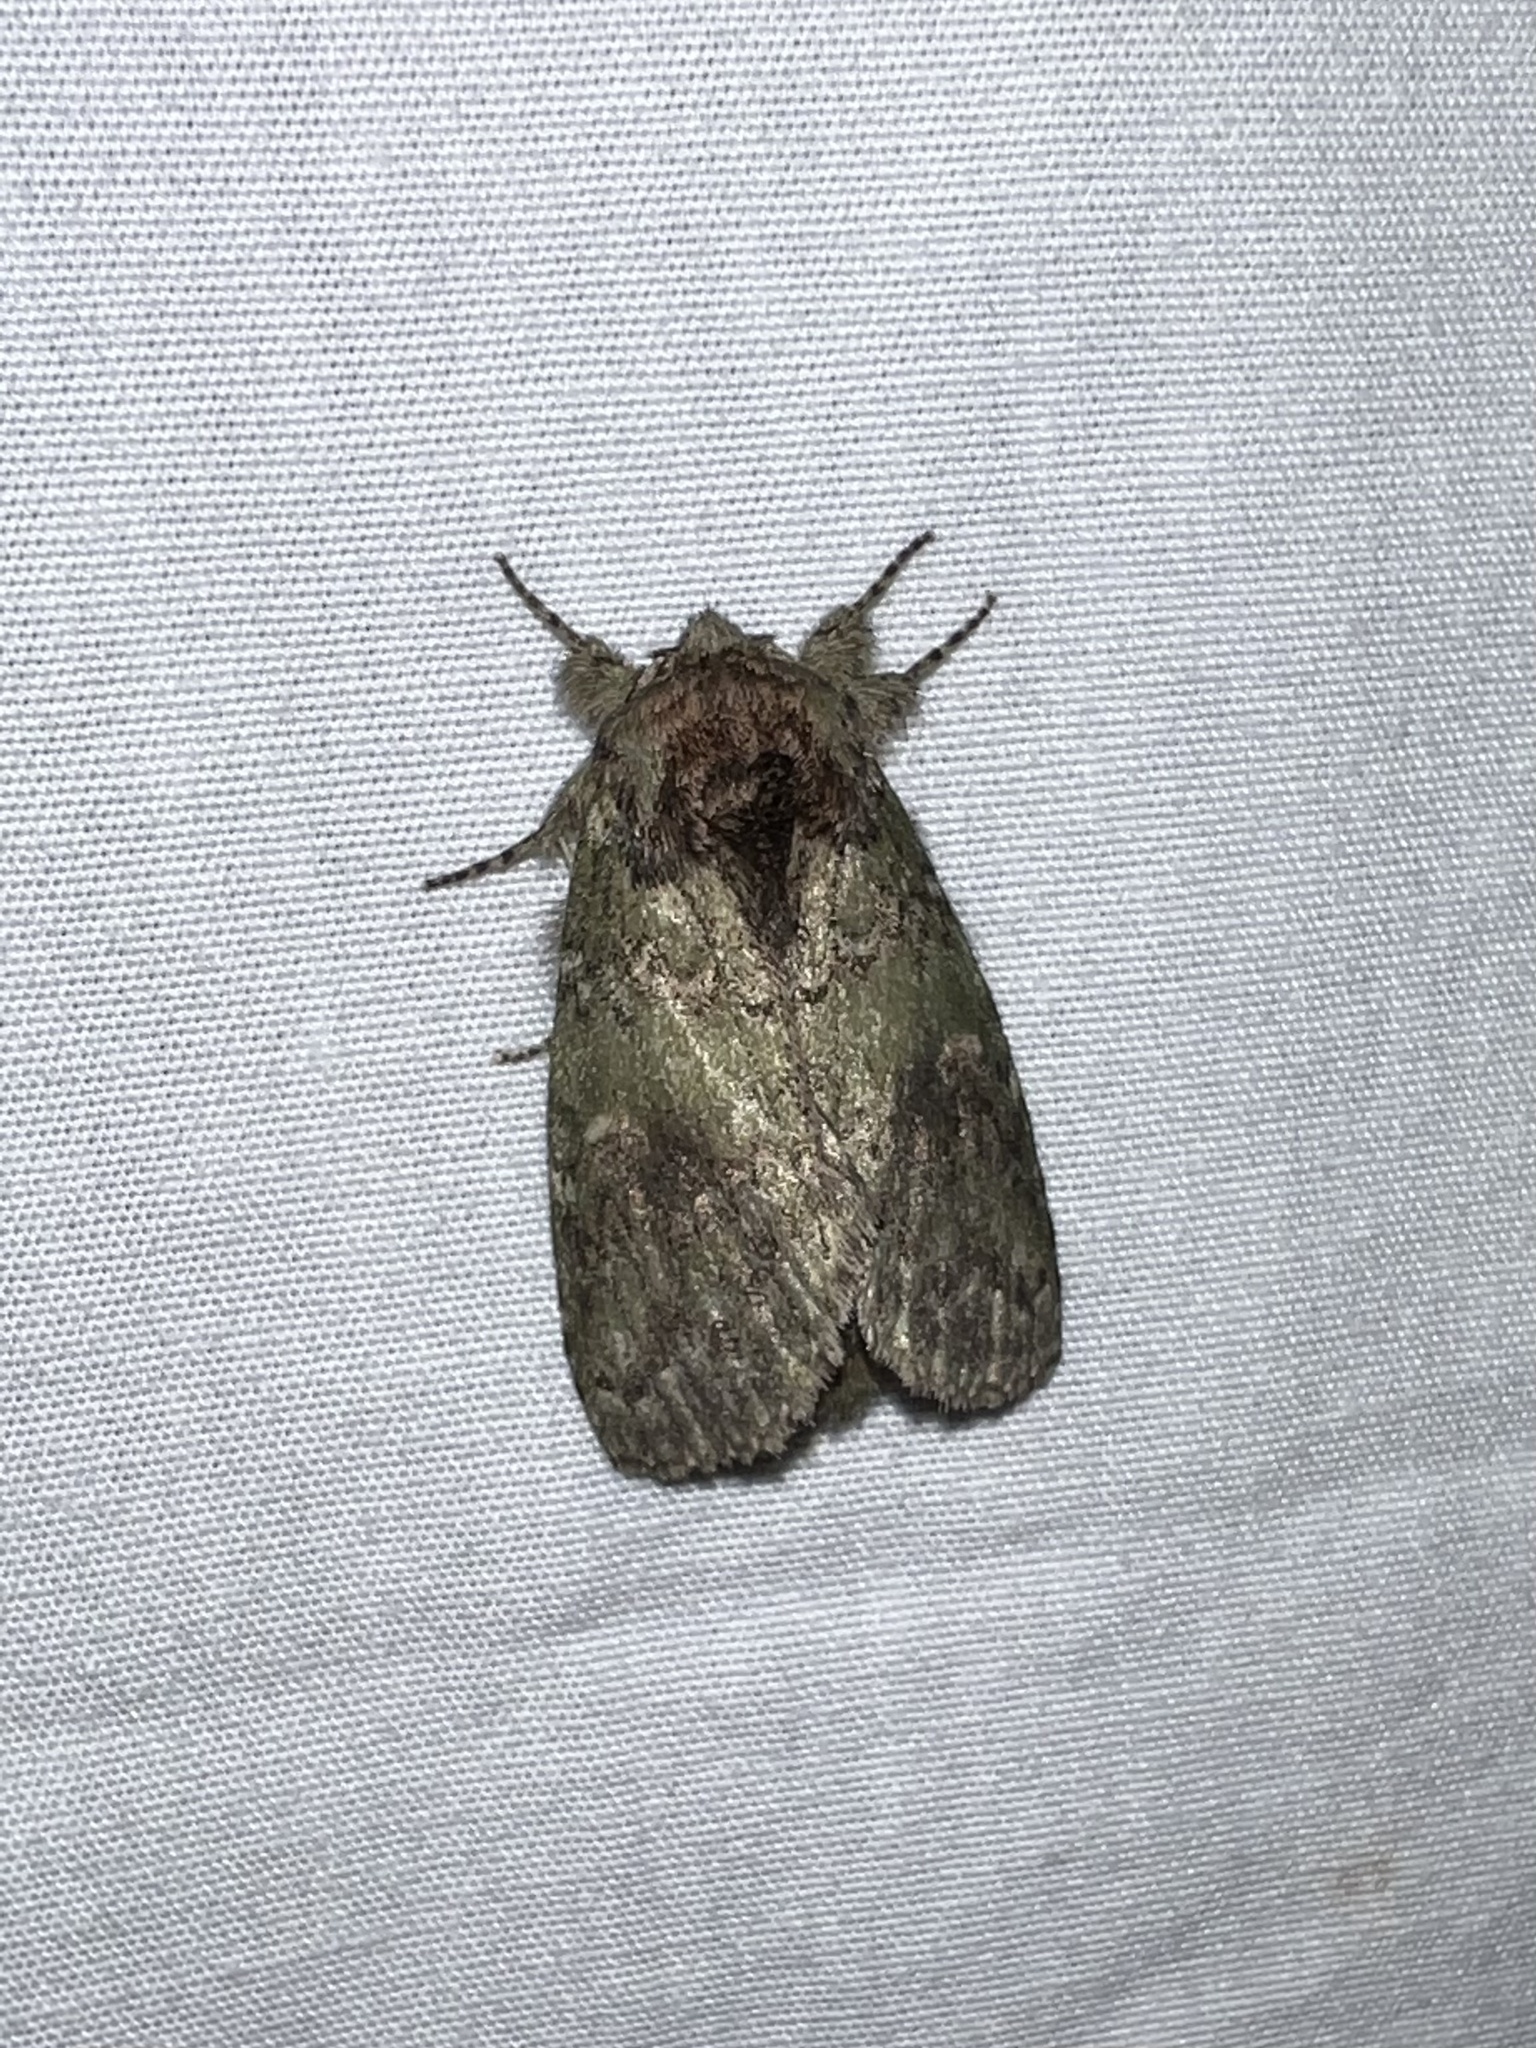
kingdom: Animalia
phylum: Arthropoda
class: Insecta
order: Lepidoptera
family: Notodontidae
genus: Disphragis
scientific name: Disphragis Cecrita biundata
